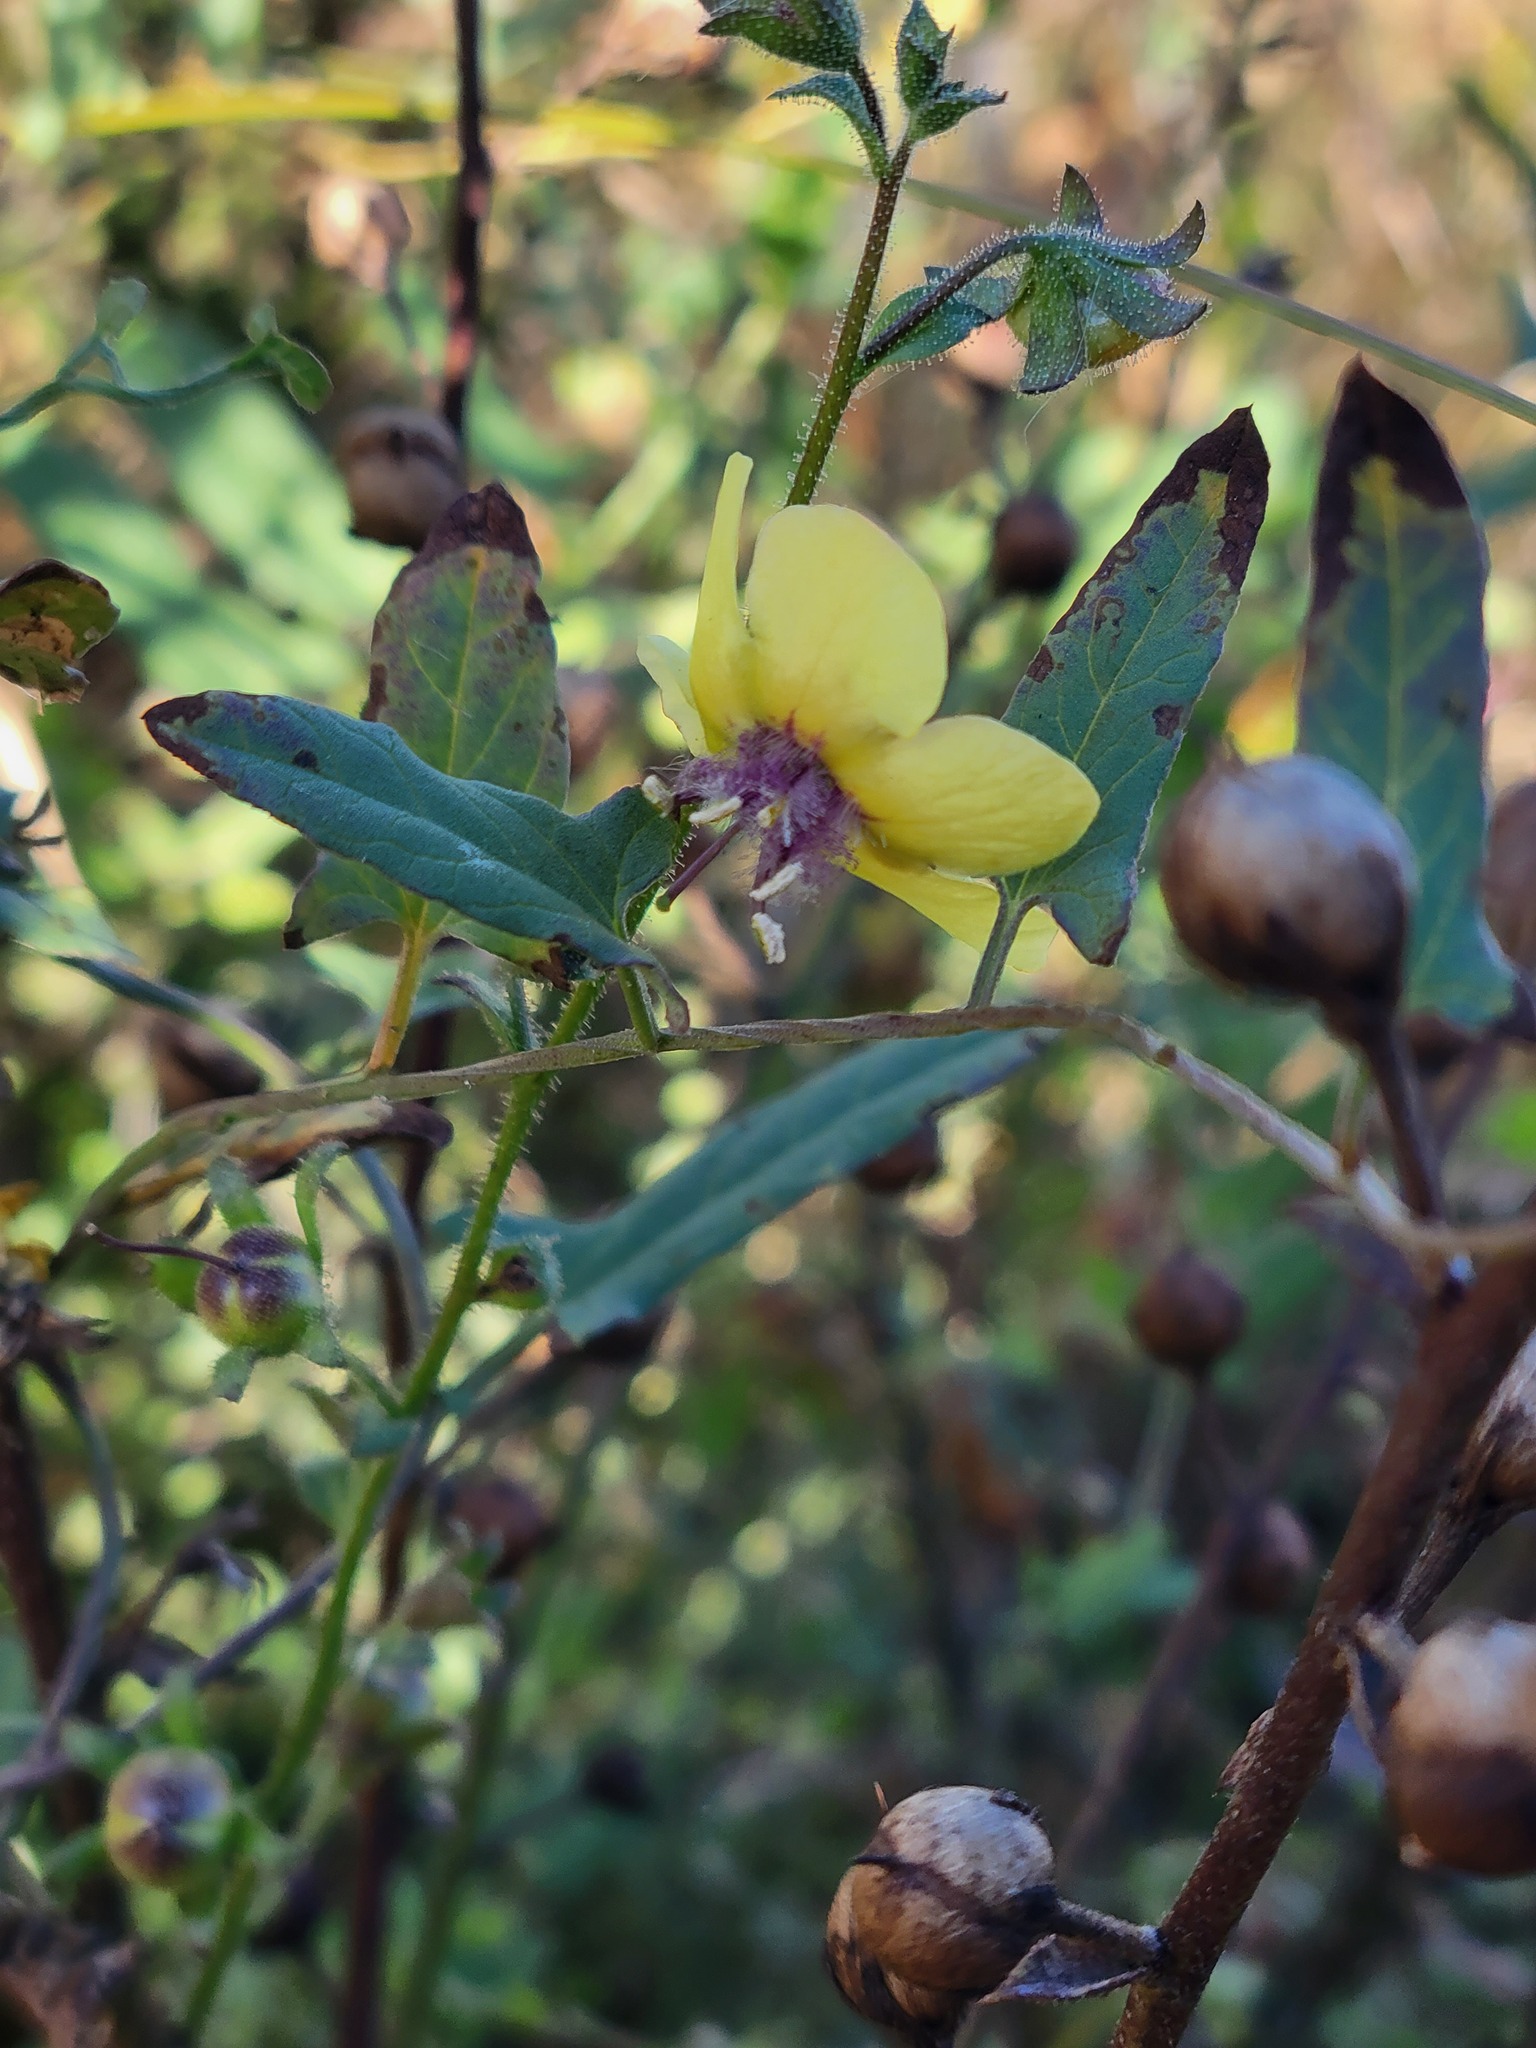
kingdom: Plantae
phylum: Tracheophyta
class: Magnoliopsida
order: Lamiales
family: Scrophulariaceae
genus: Verbascum
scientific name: Verbascum blattaria
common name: Moth mullein
